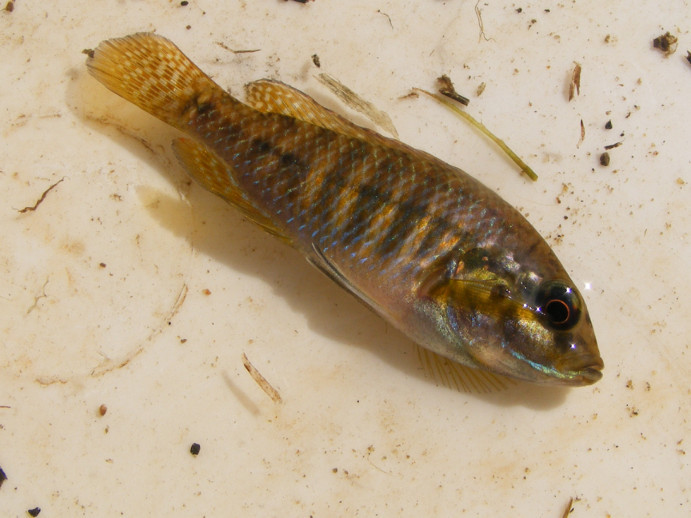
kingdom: Animalia
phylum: Chordata
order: Perciformes
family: Cichlidae
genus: Pseudocrenilabrus
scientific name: Pseudocrenilabrus philander
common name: Southern mouthbrooder
